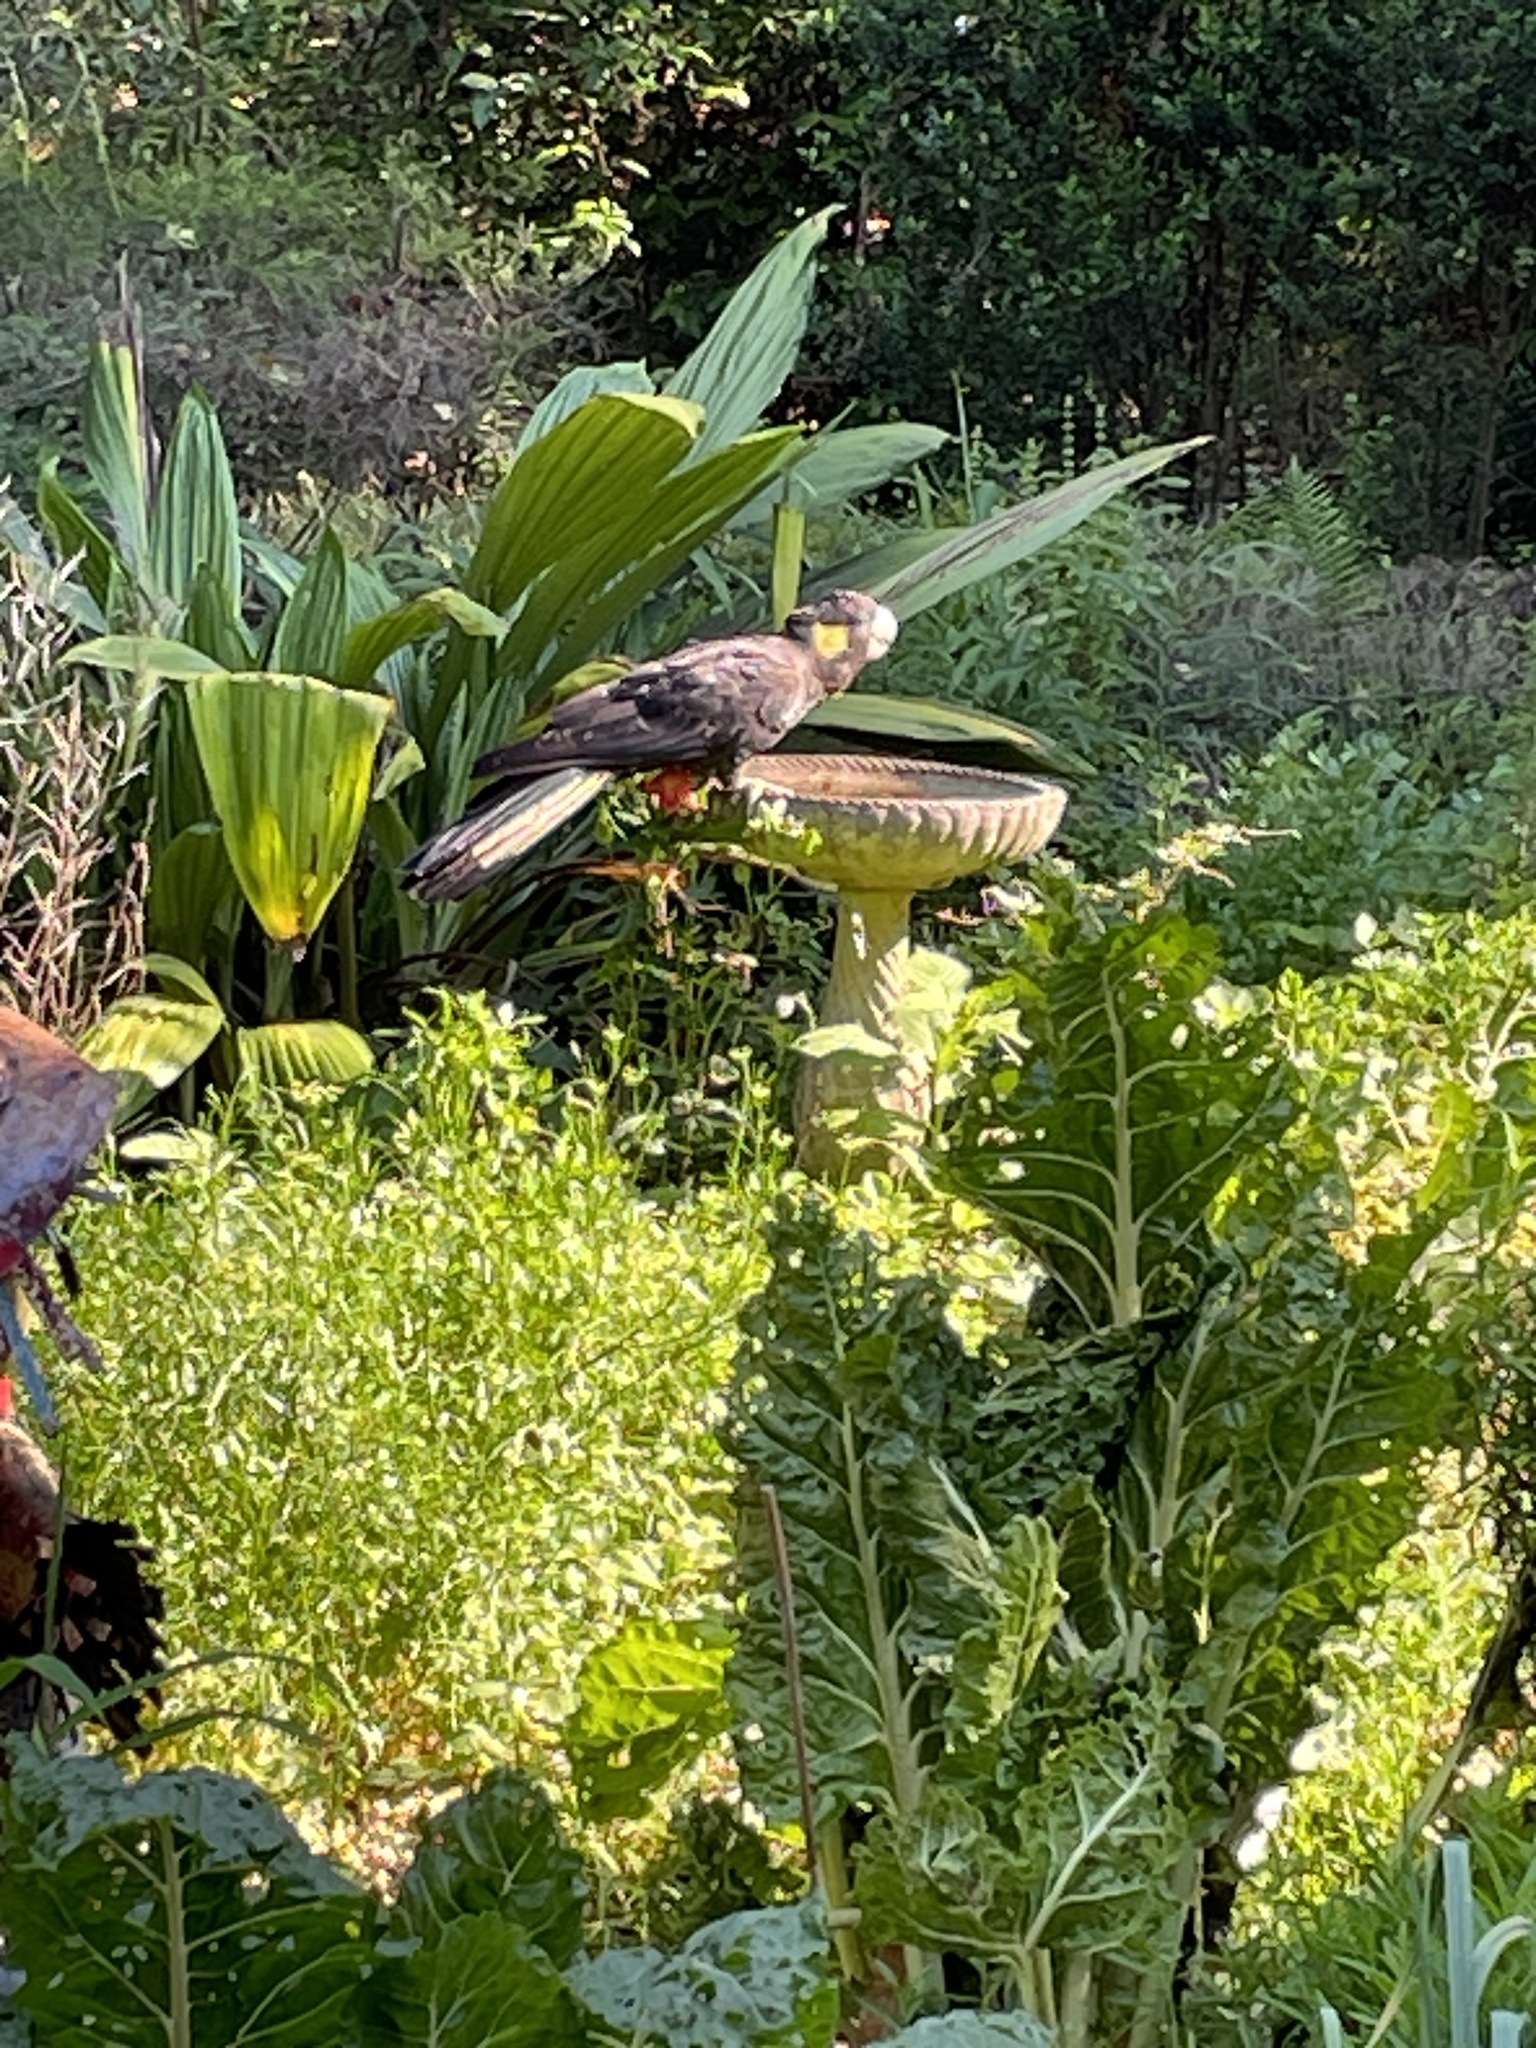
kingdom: Animalia
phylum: Chordata
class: Aves
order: Psittaciformes
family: Cacatuidae
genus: Zanda
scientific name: Zanda funerea
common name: Yellow-tailed black-cockatoo
